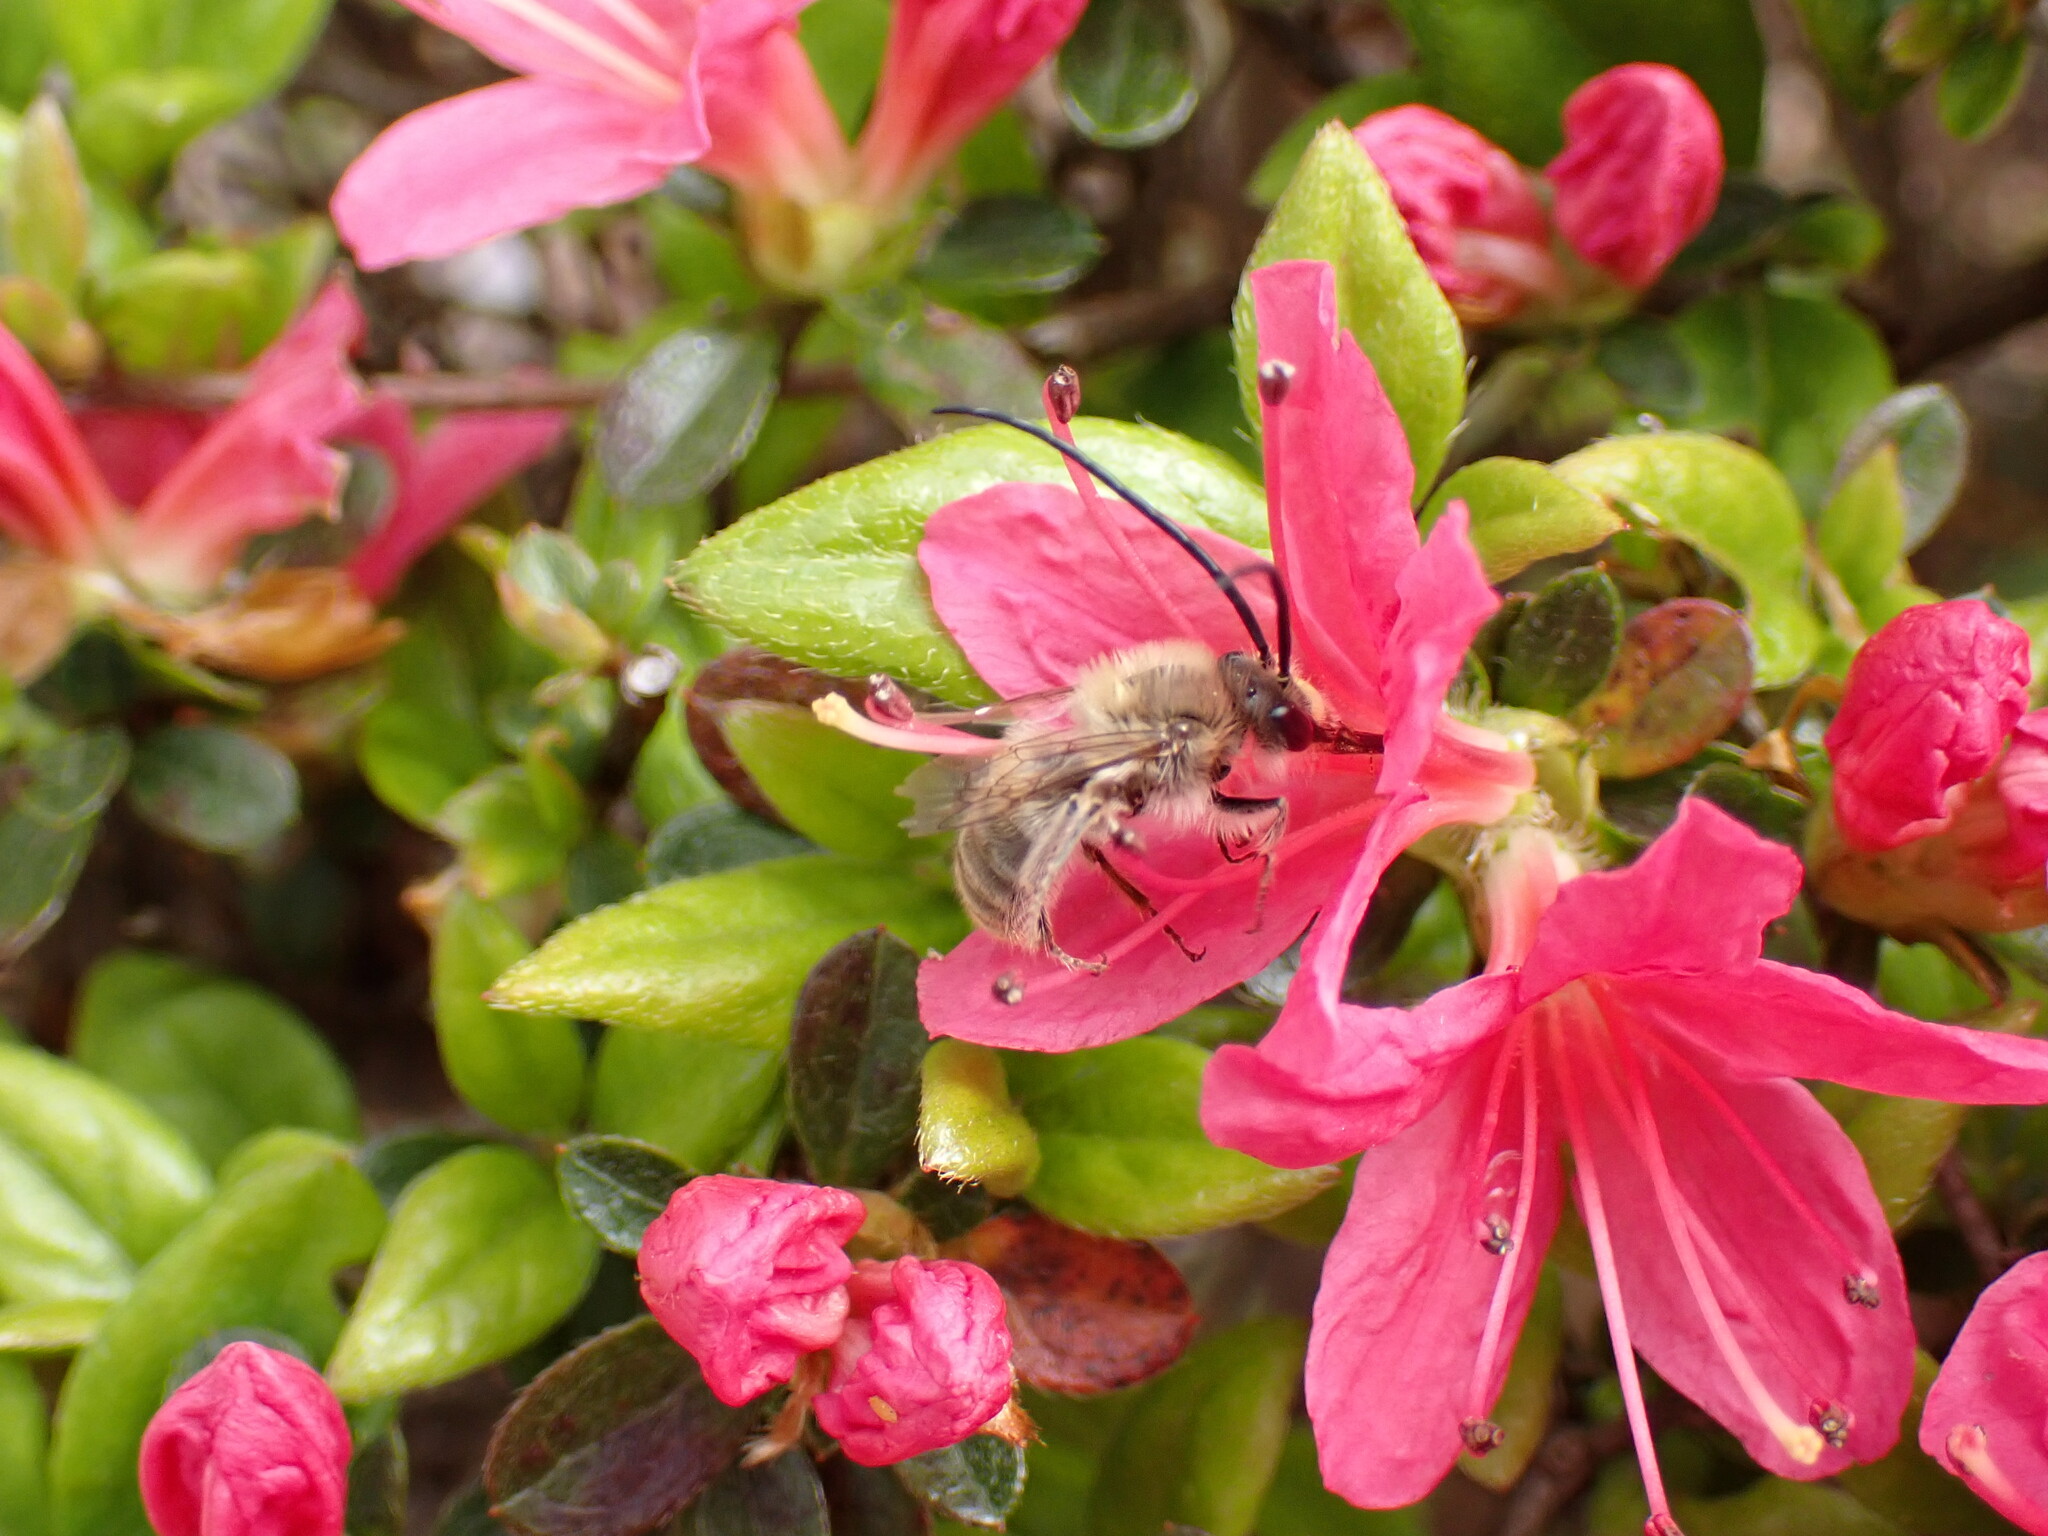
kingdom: Animalia
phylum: Arthropoda
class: Insecta
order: Hymenoptera
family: Apidae
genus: Eucera
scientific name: Eucera nipponensis
